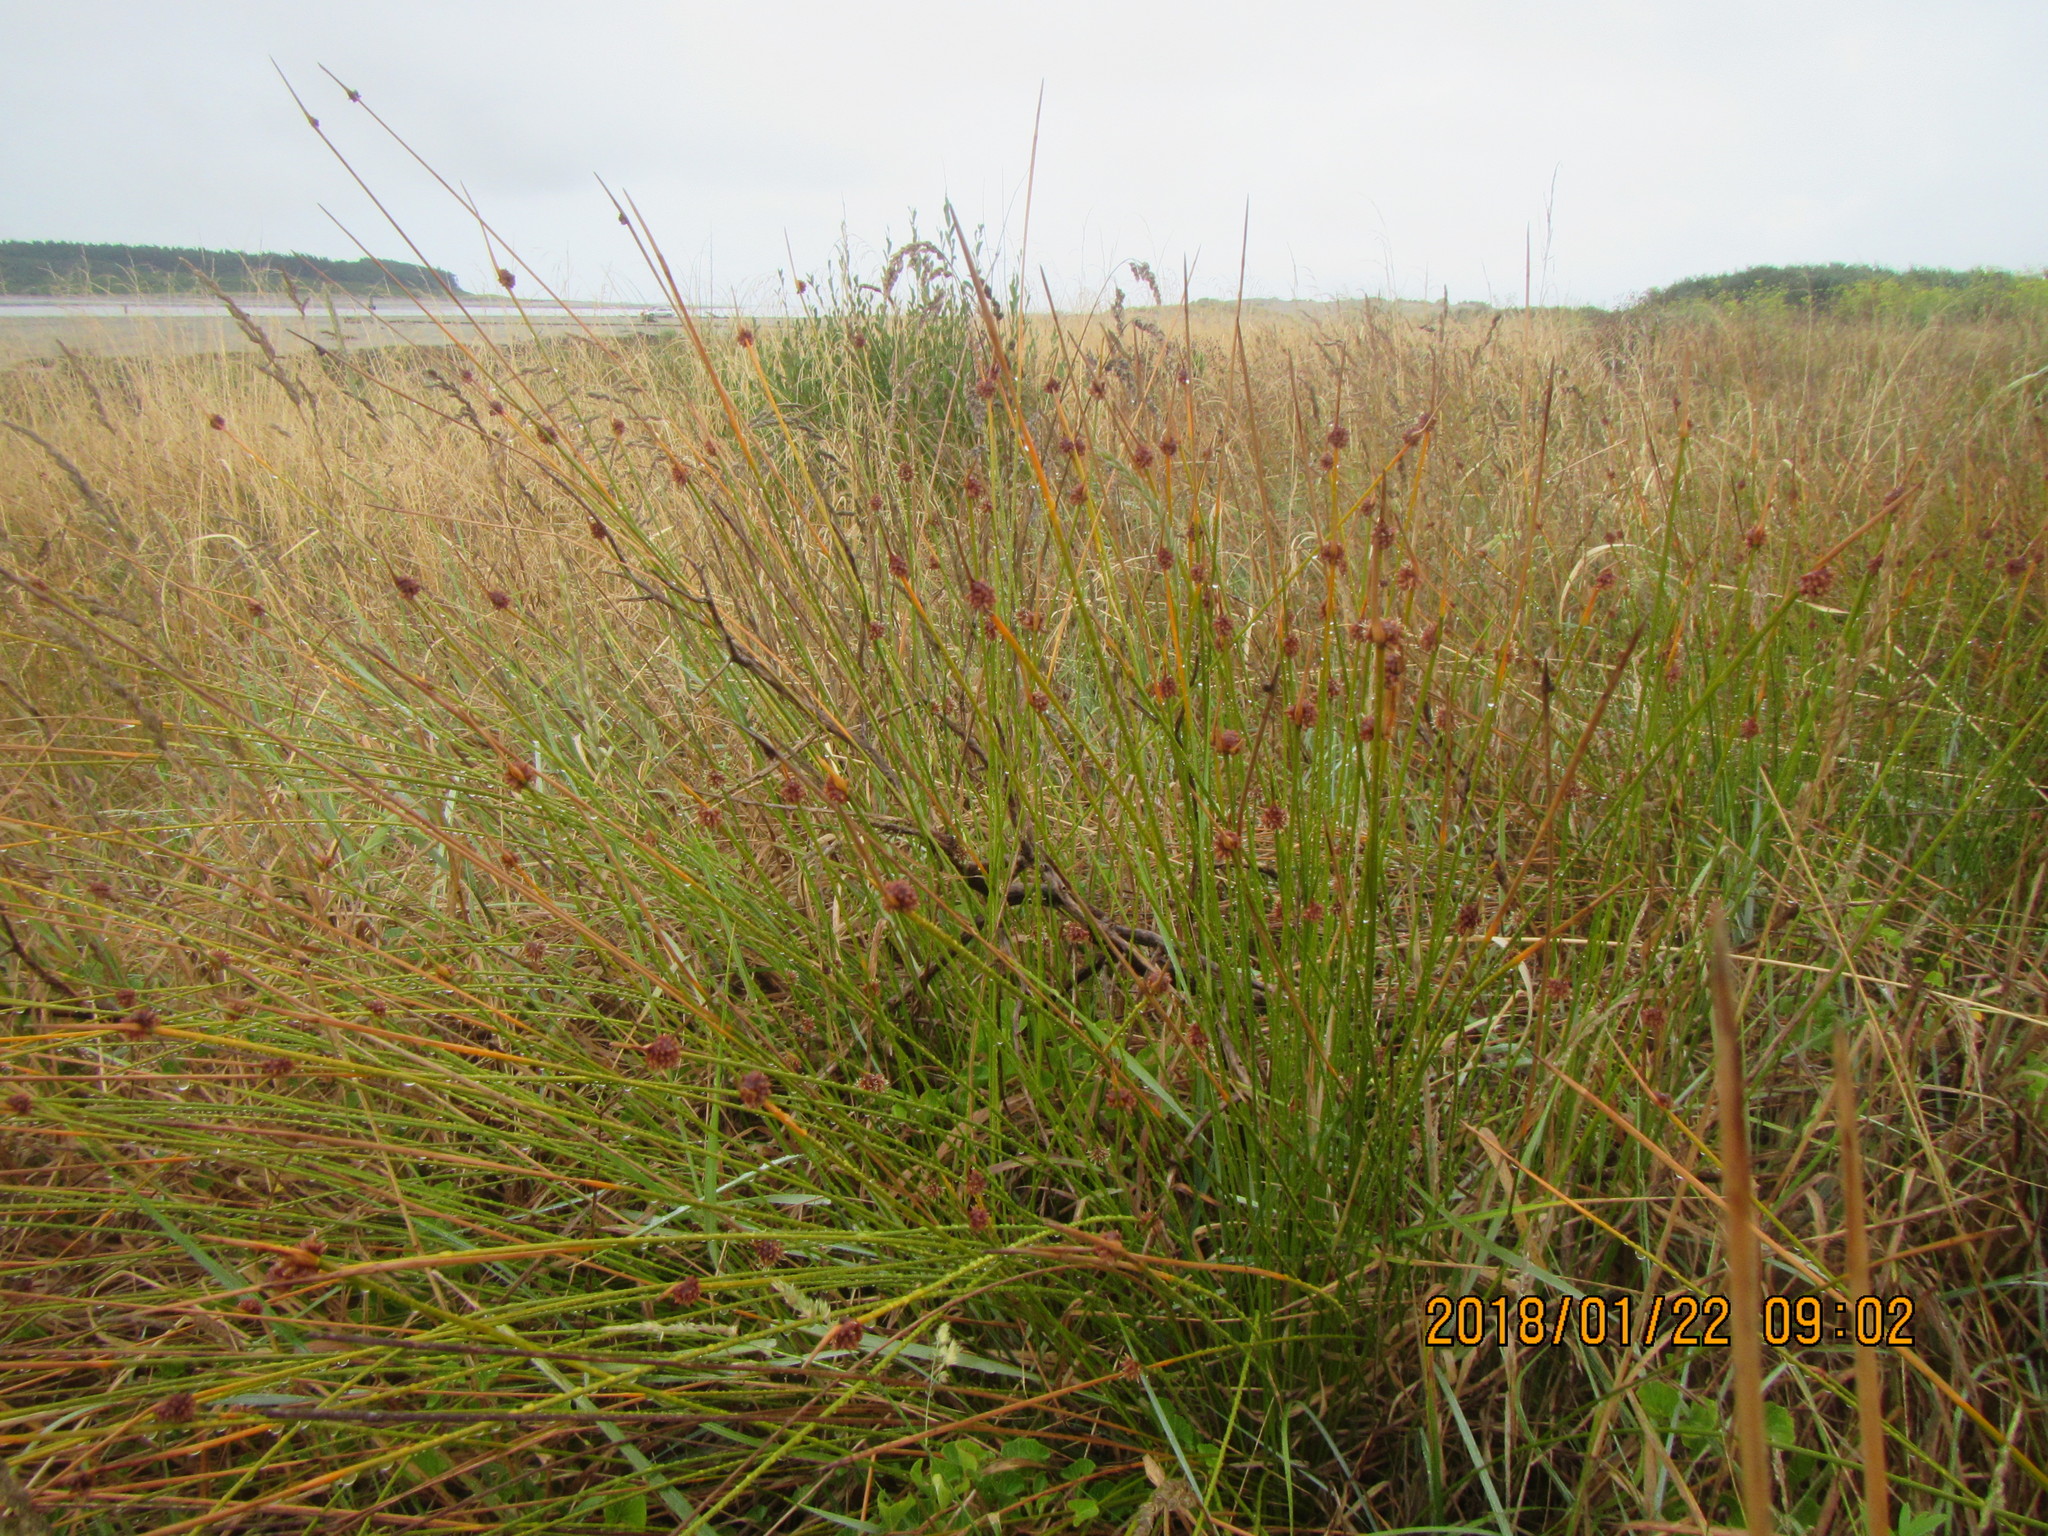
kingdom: Plantae
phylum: Tracheophyta
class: Liliopsida
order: Poales
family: Cyperaceae
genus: Ficinia
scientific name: Ficinia nodosa
